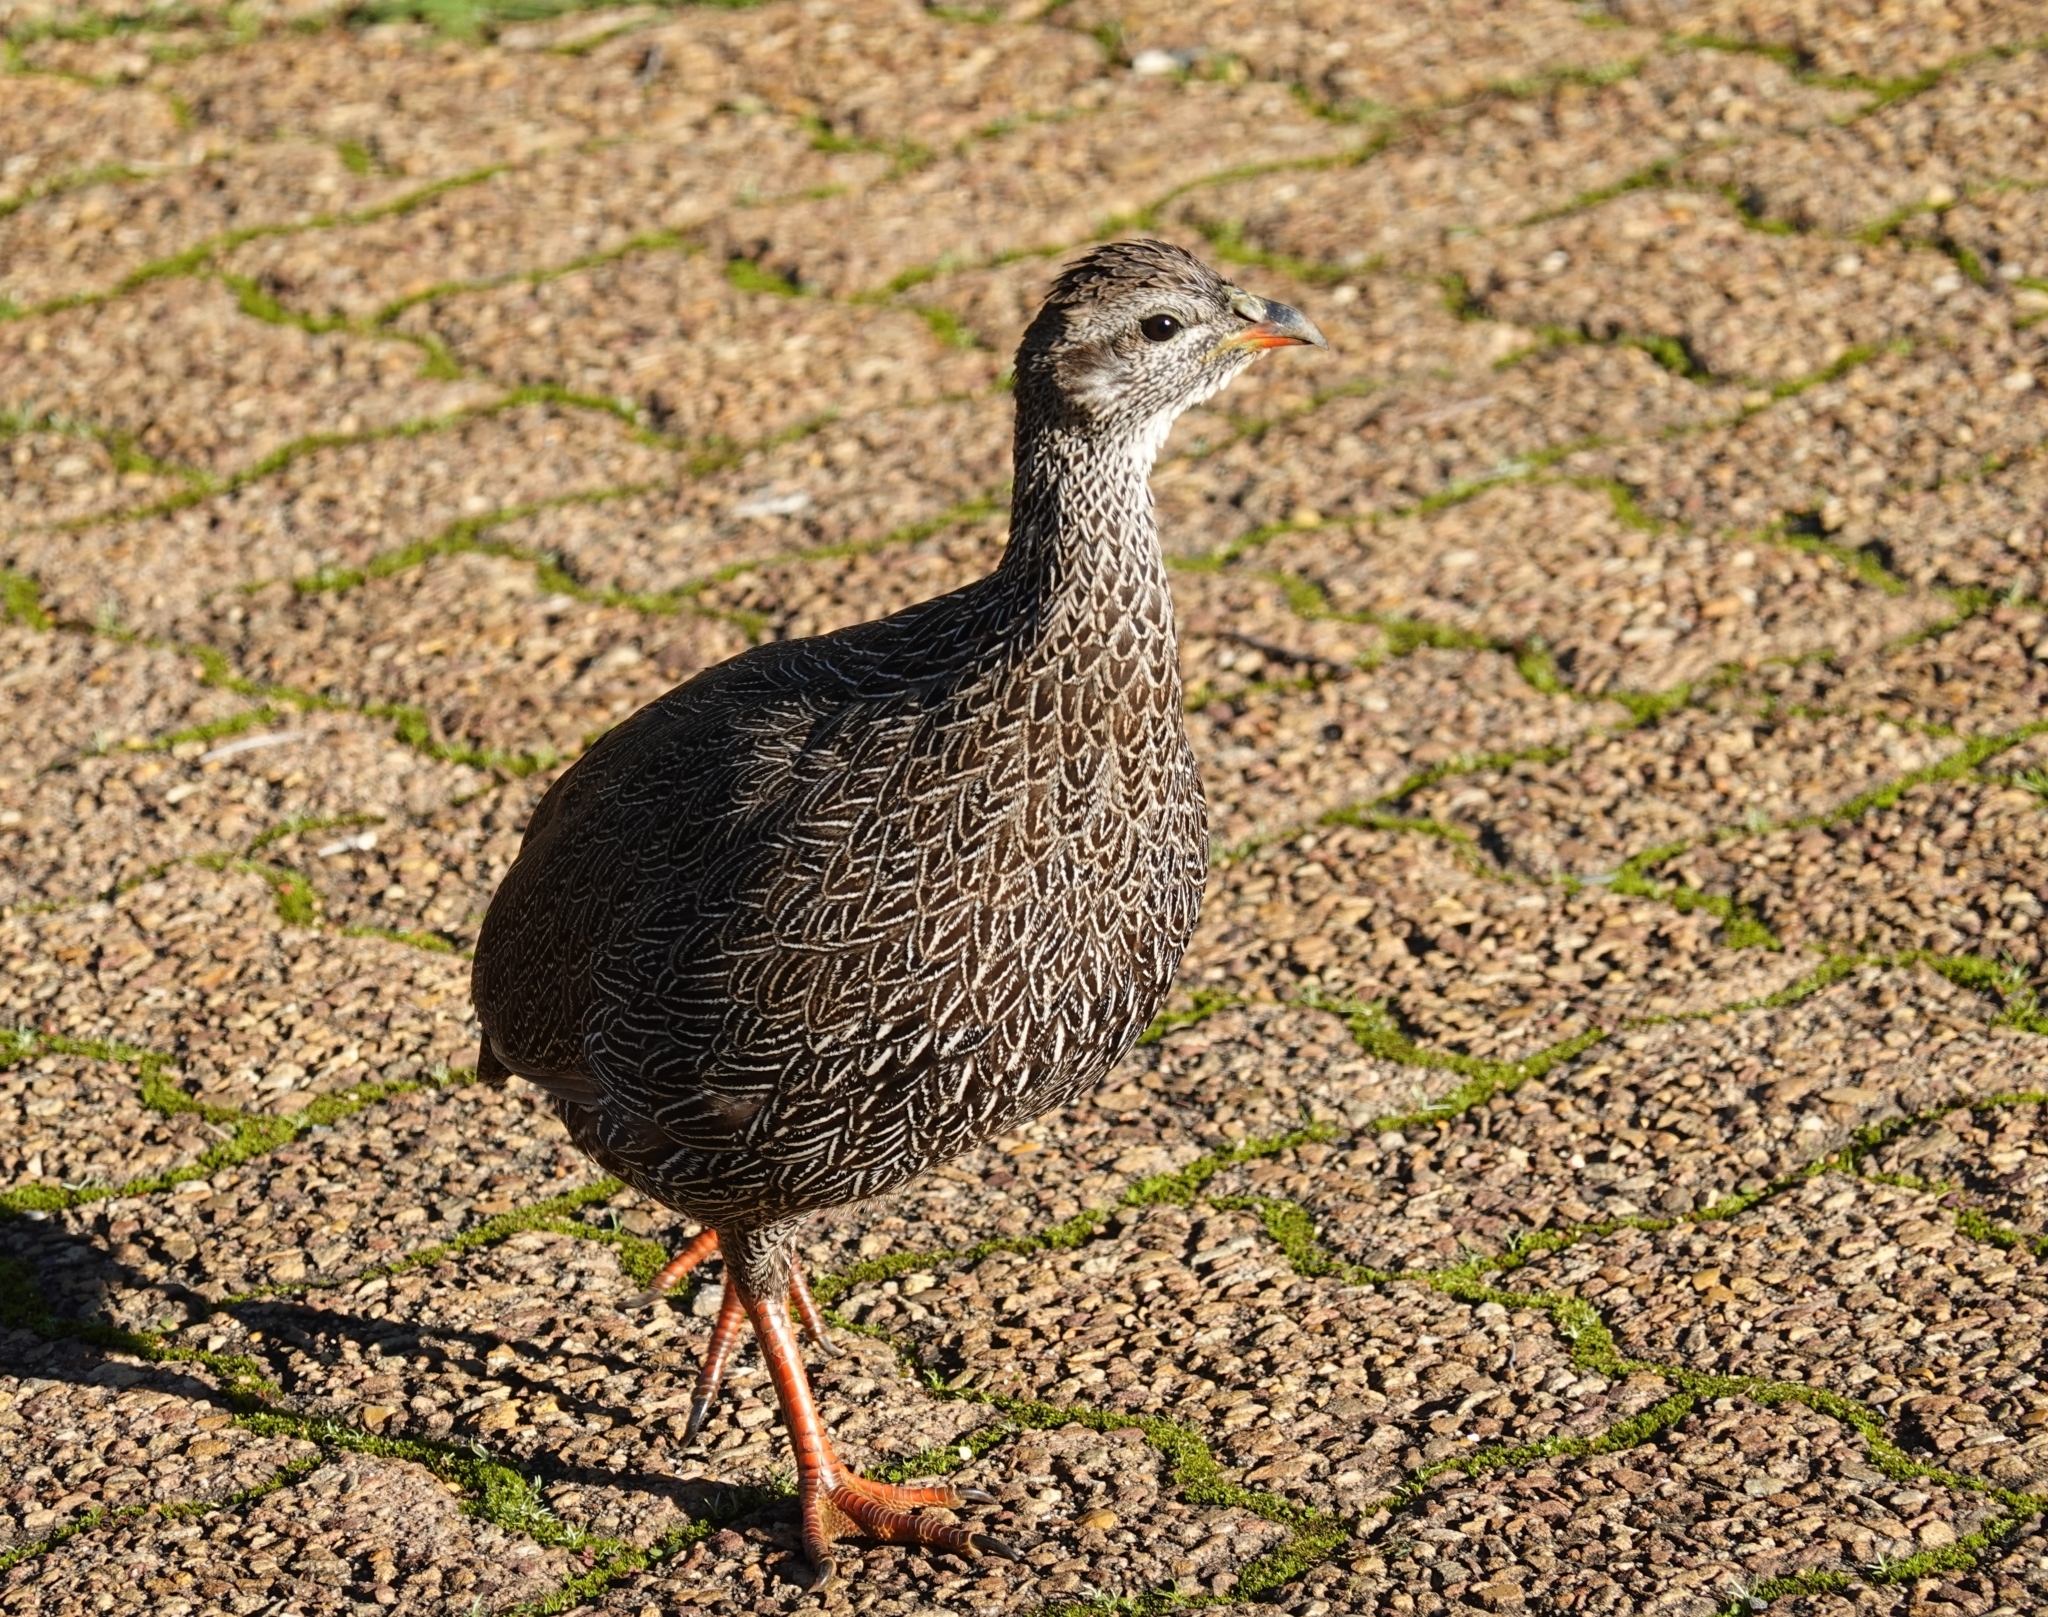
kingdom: Animalia
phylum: Chordata
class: Aves
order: Galliformes
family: Phasianidae
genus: Pternistis
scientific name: Pternistis capensis
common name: Cape spurfowl
